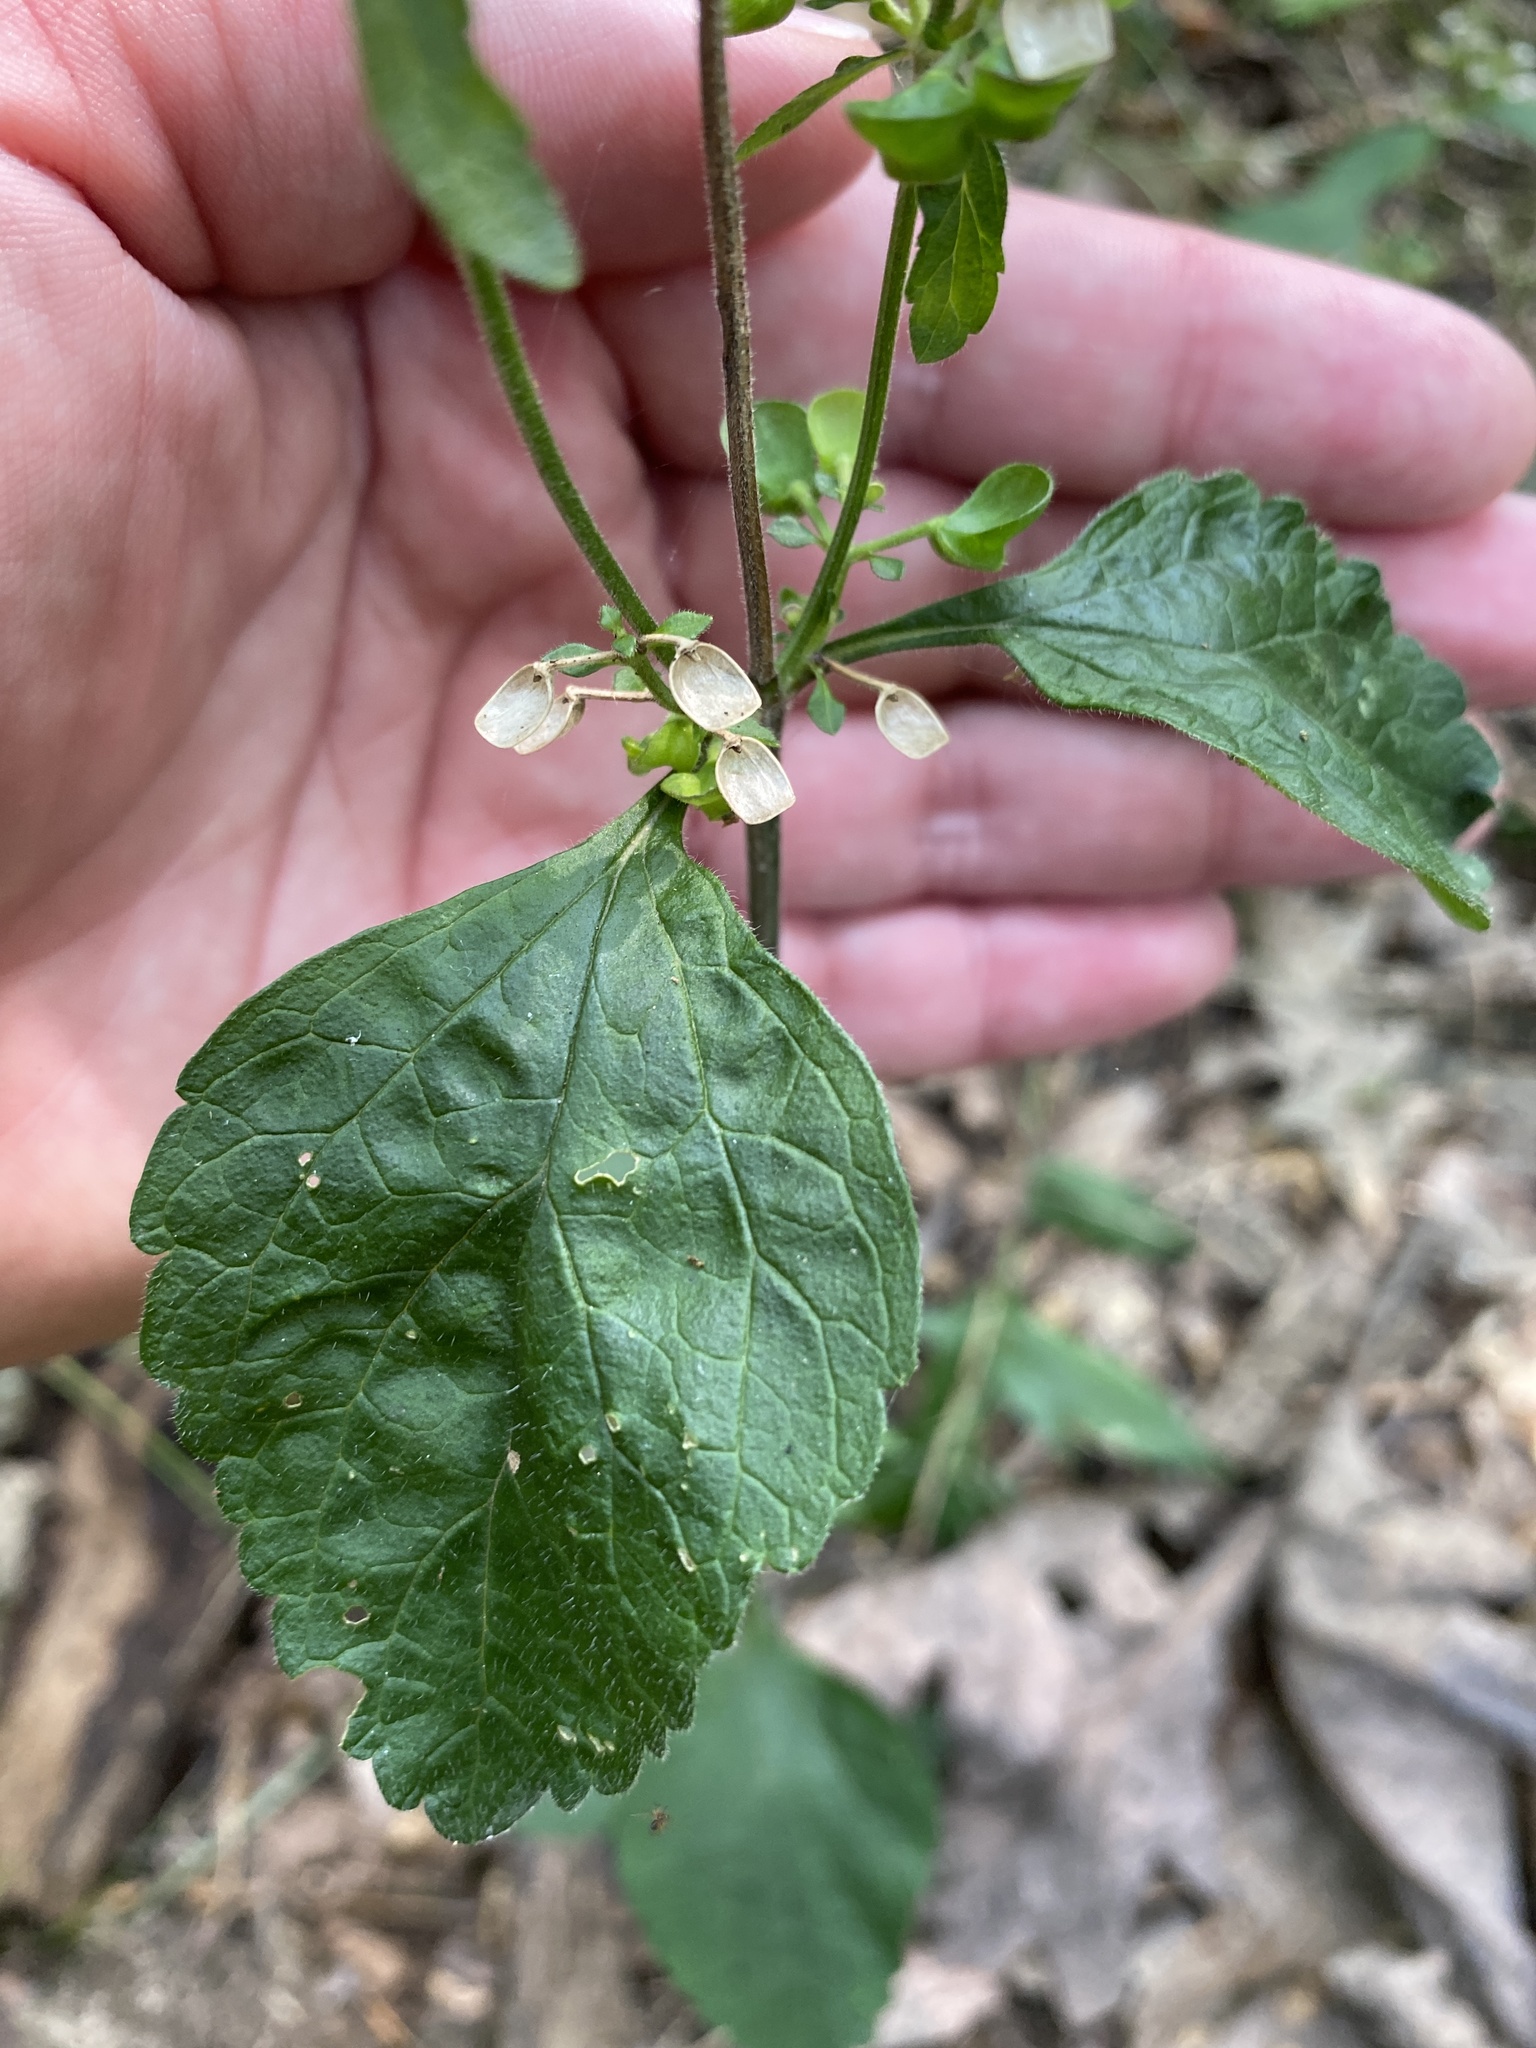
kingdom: Plantae
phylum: Tracheophyta
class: Magnoliopsida
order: Lamiales
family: Lamiaceae
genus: Scutellaria
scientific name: Scutellaria elliptica
